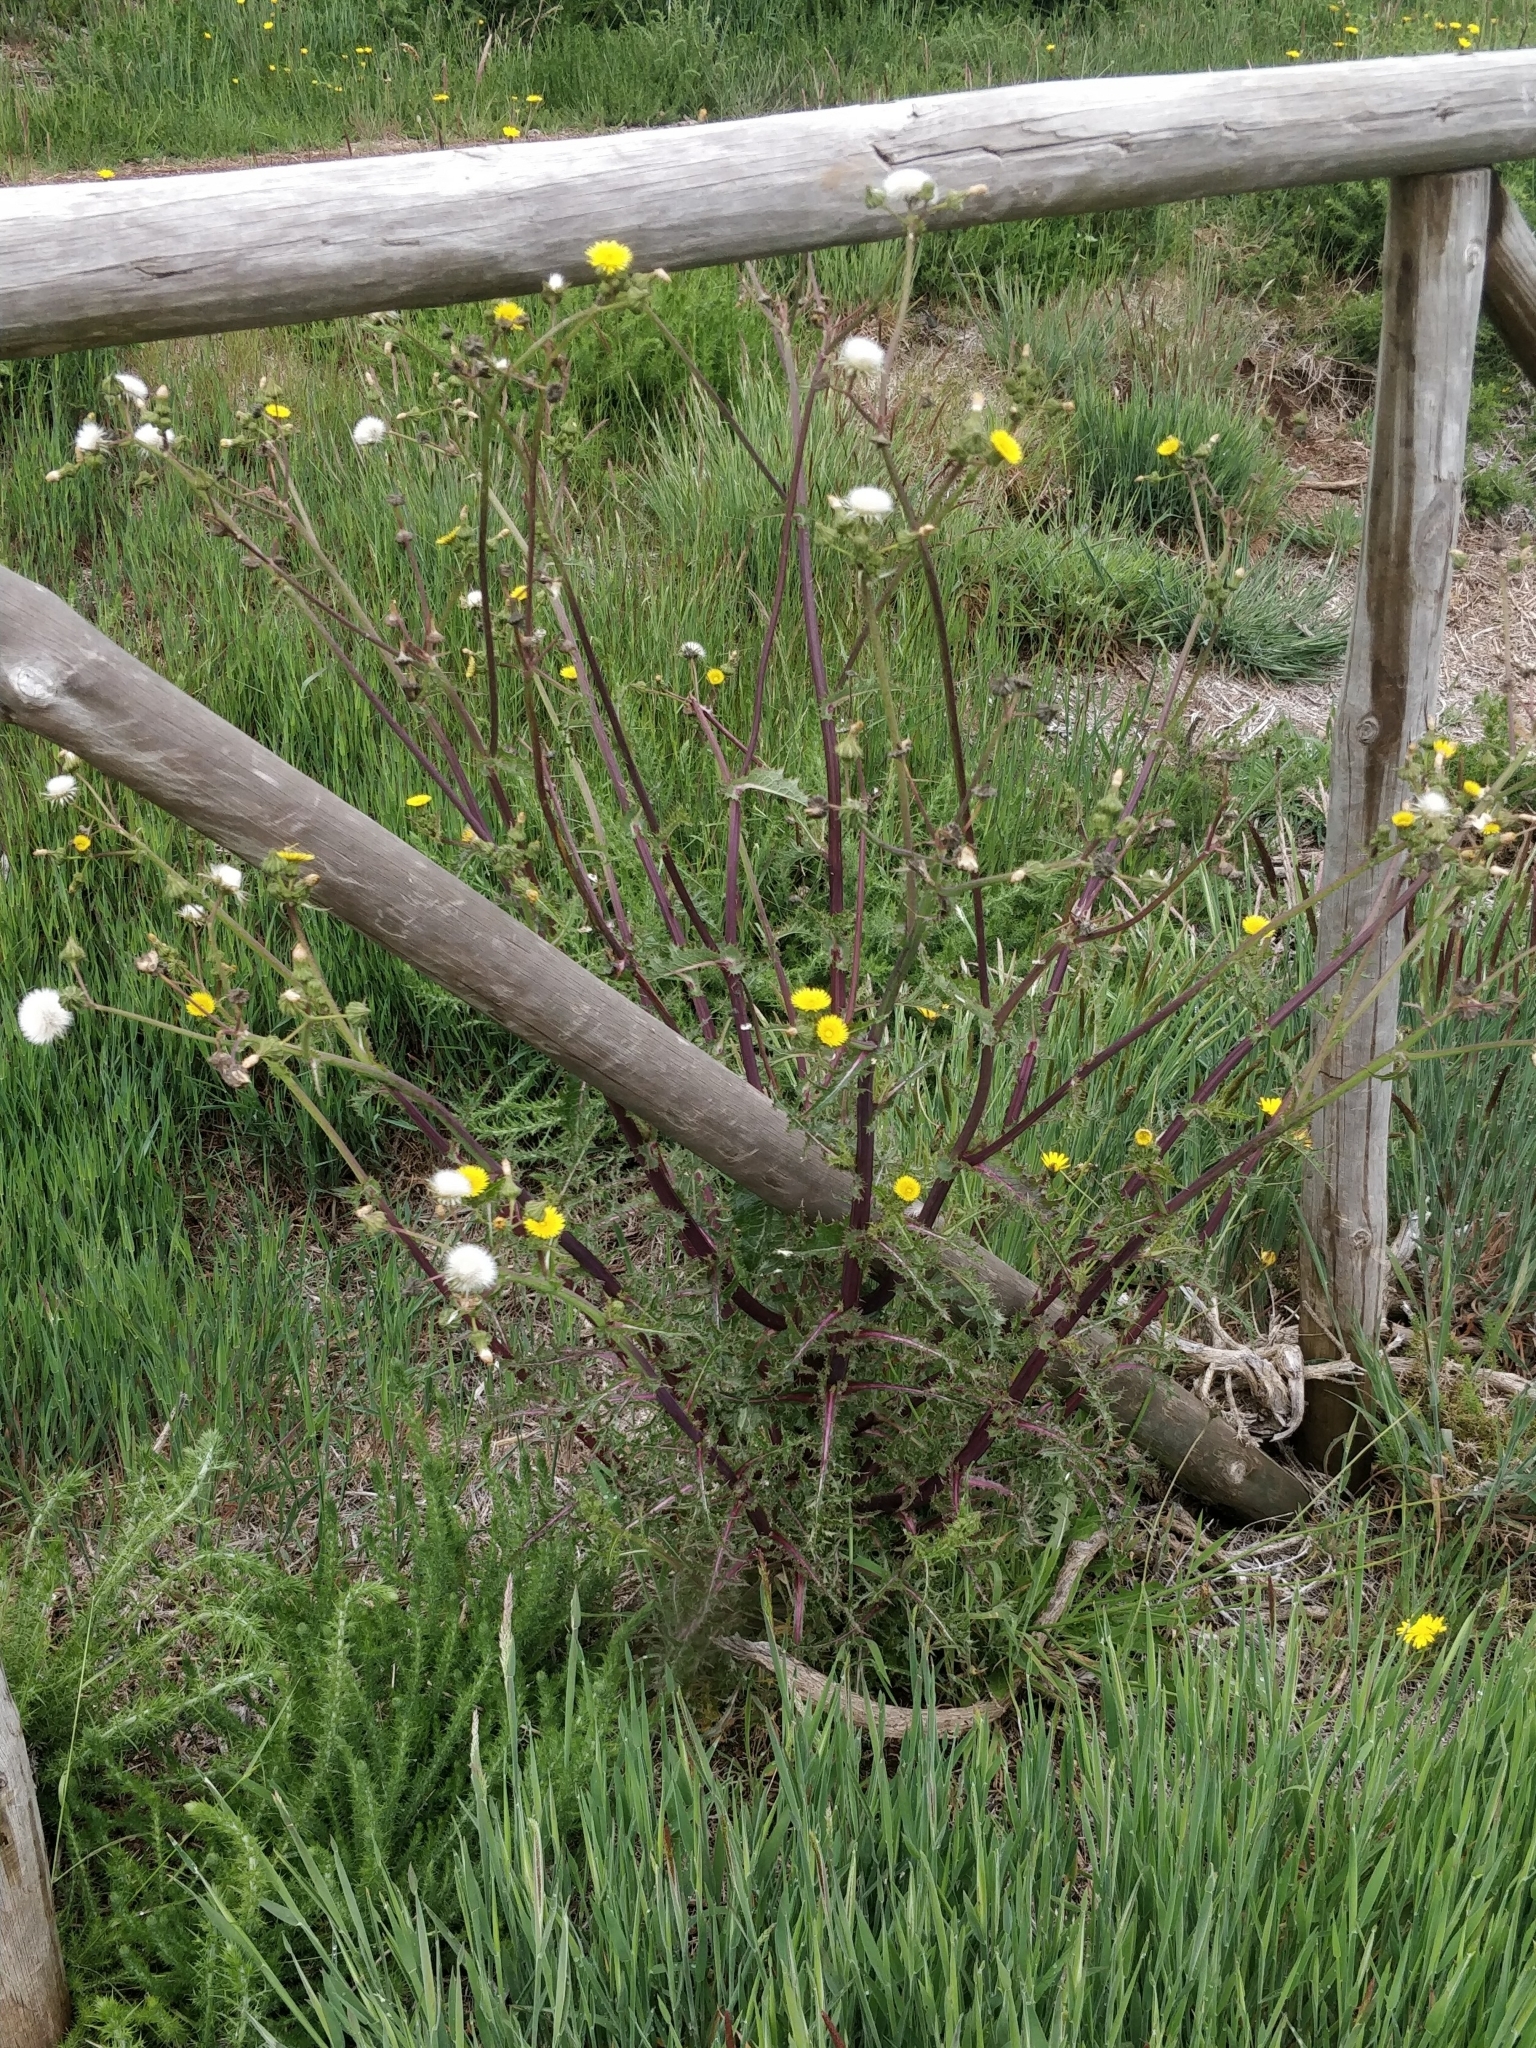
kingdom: Plantae
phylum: Tracheophyta
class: Magnoliopsida
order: Asterales
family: Asteraceae
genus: Sonchus
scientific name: Sonchus asper
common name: Prickly sow-thistle
